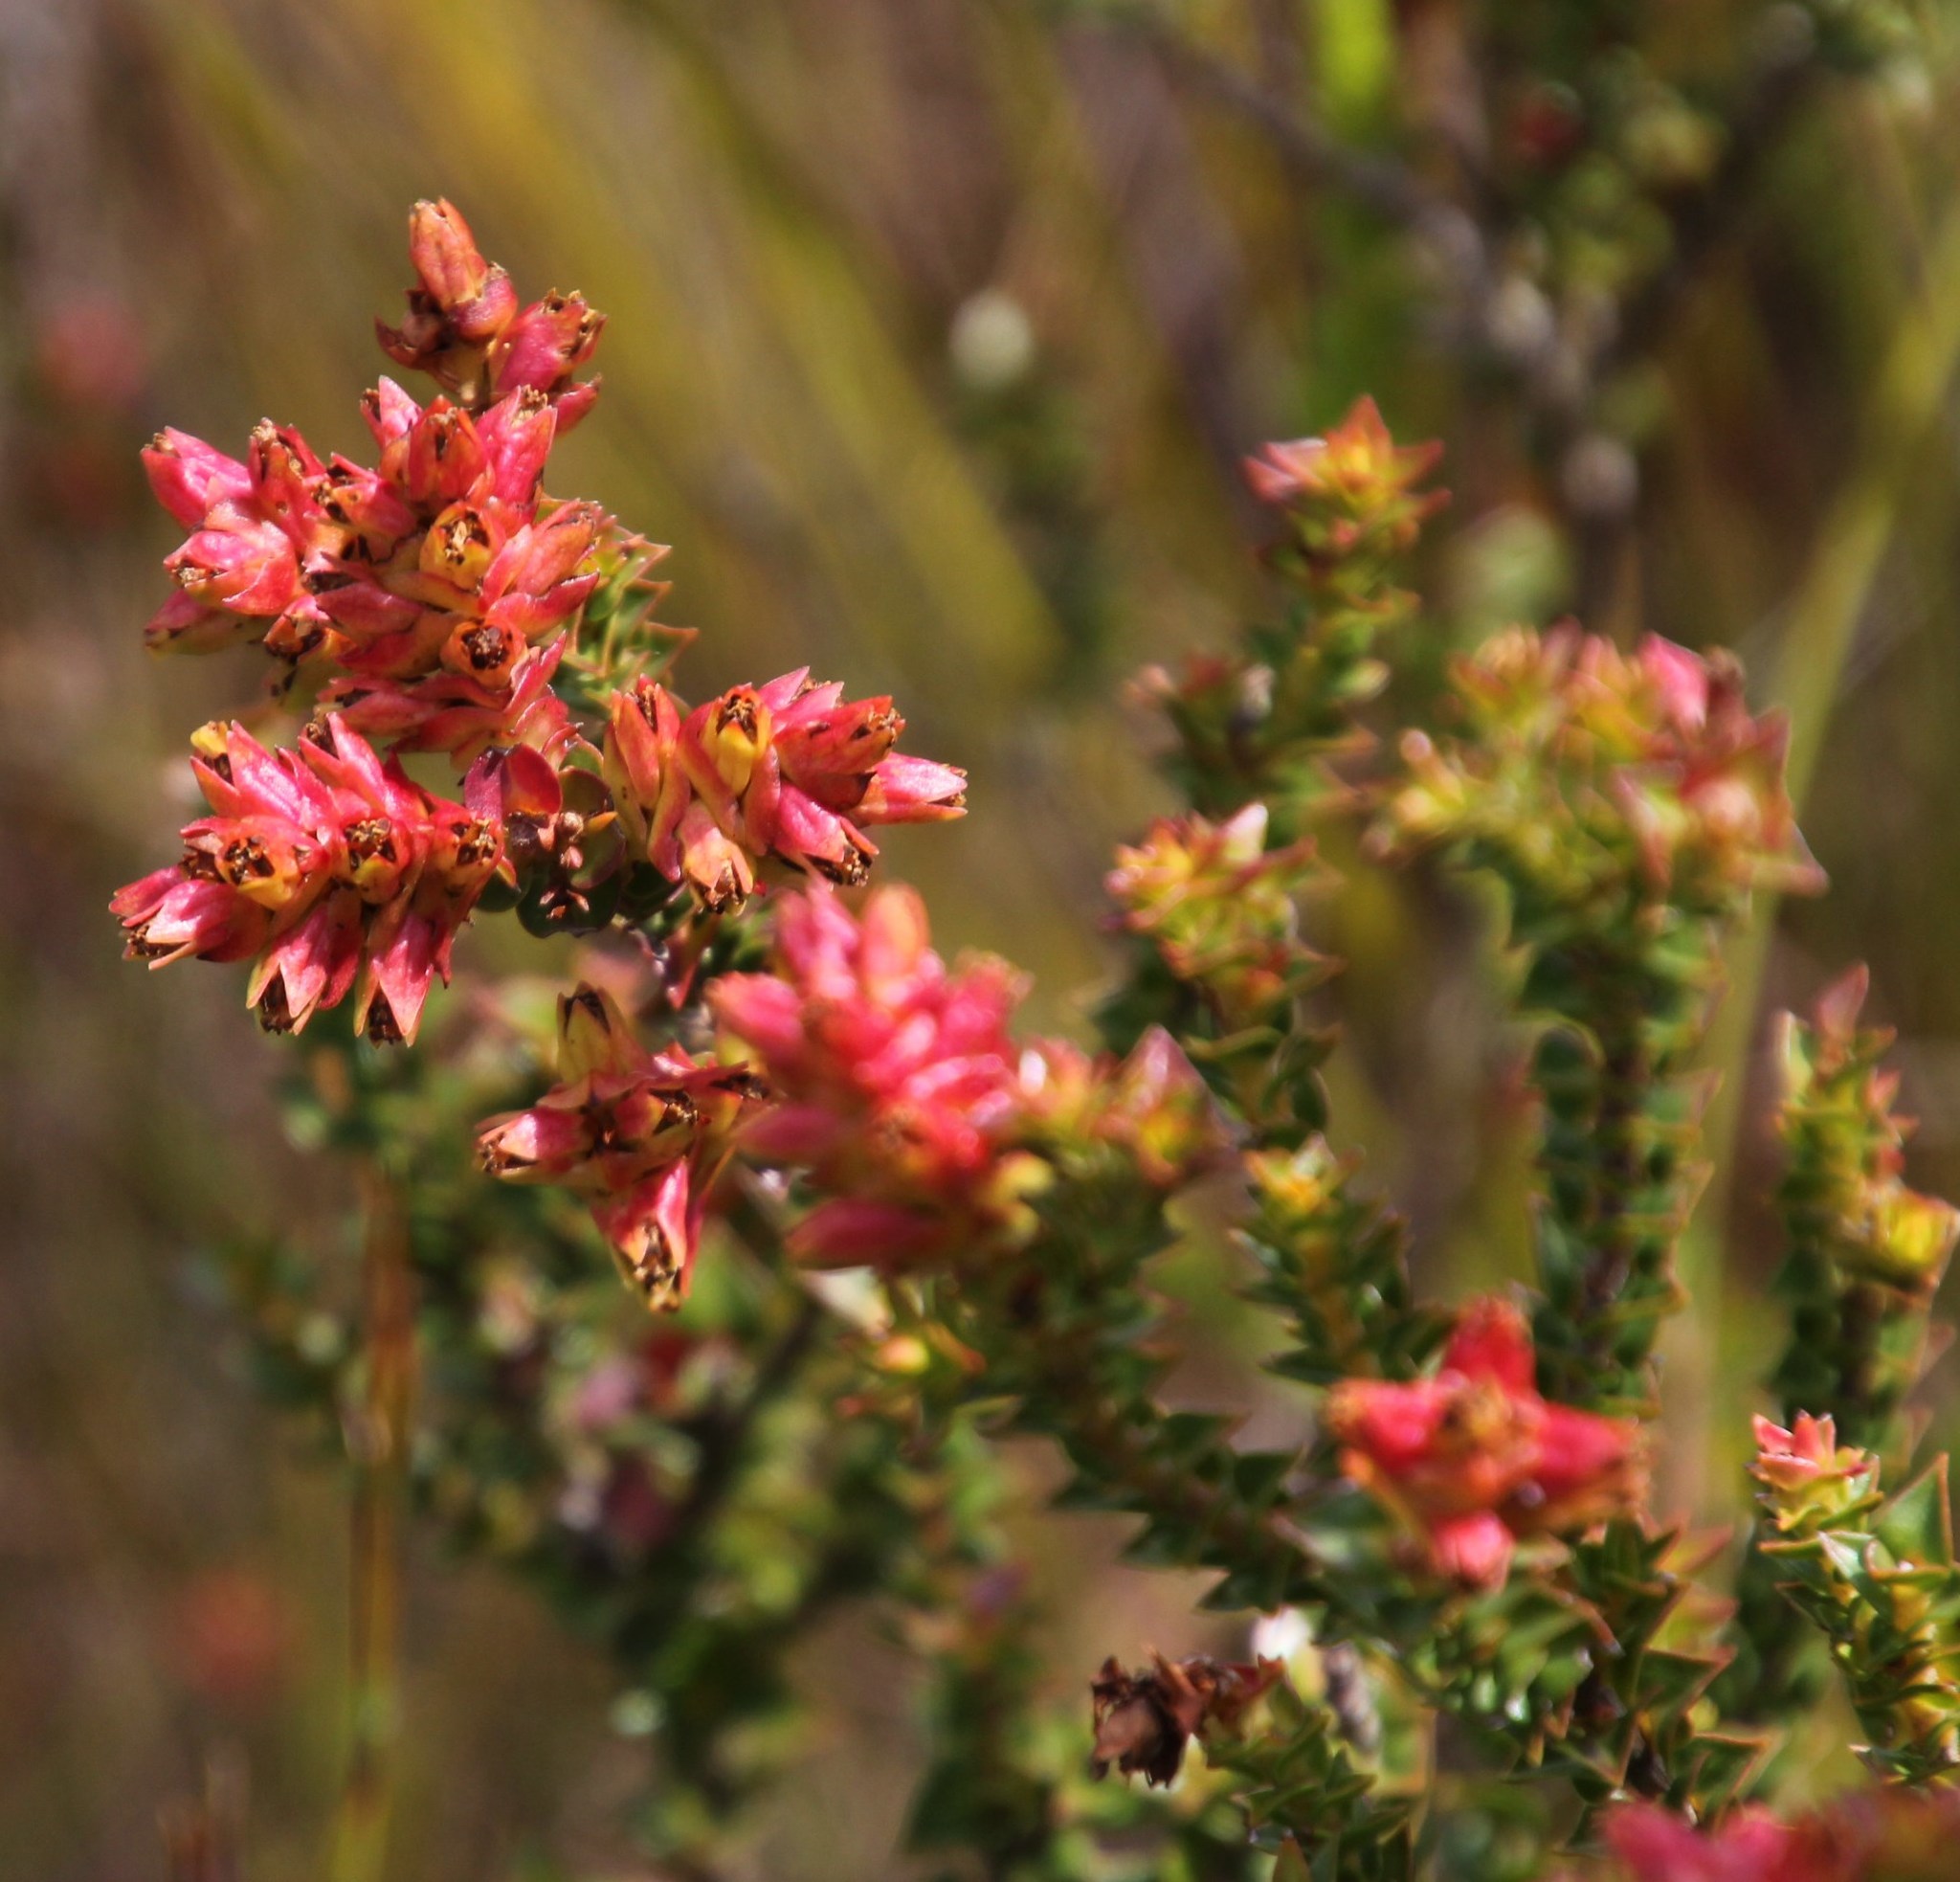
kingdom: Plantae
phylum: Tracheophyta
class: Magnoliopsida
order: Myrtales
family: Penaeaceae
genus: Penaea
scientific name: Penaea cneorum
